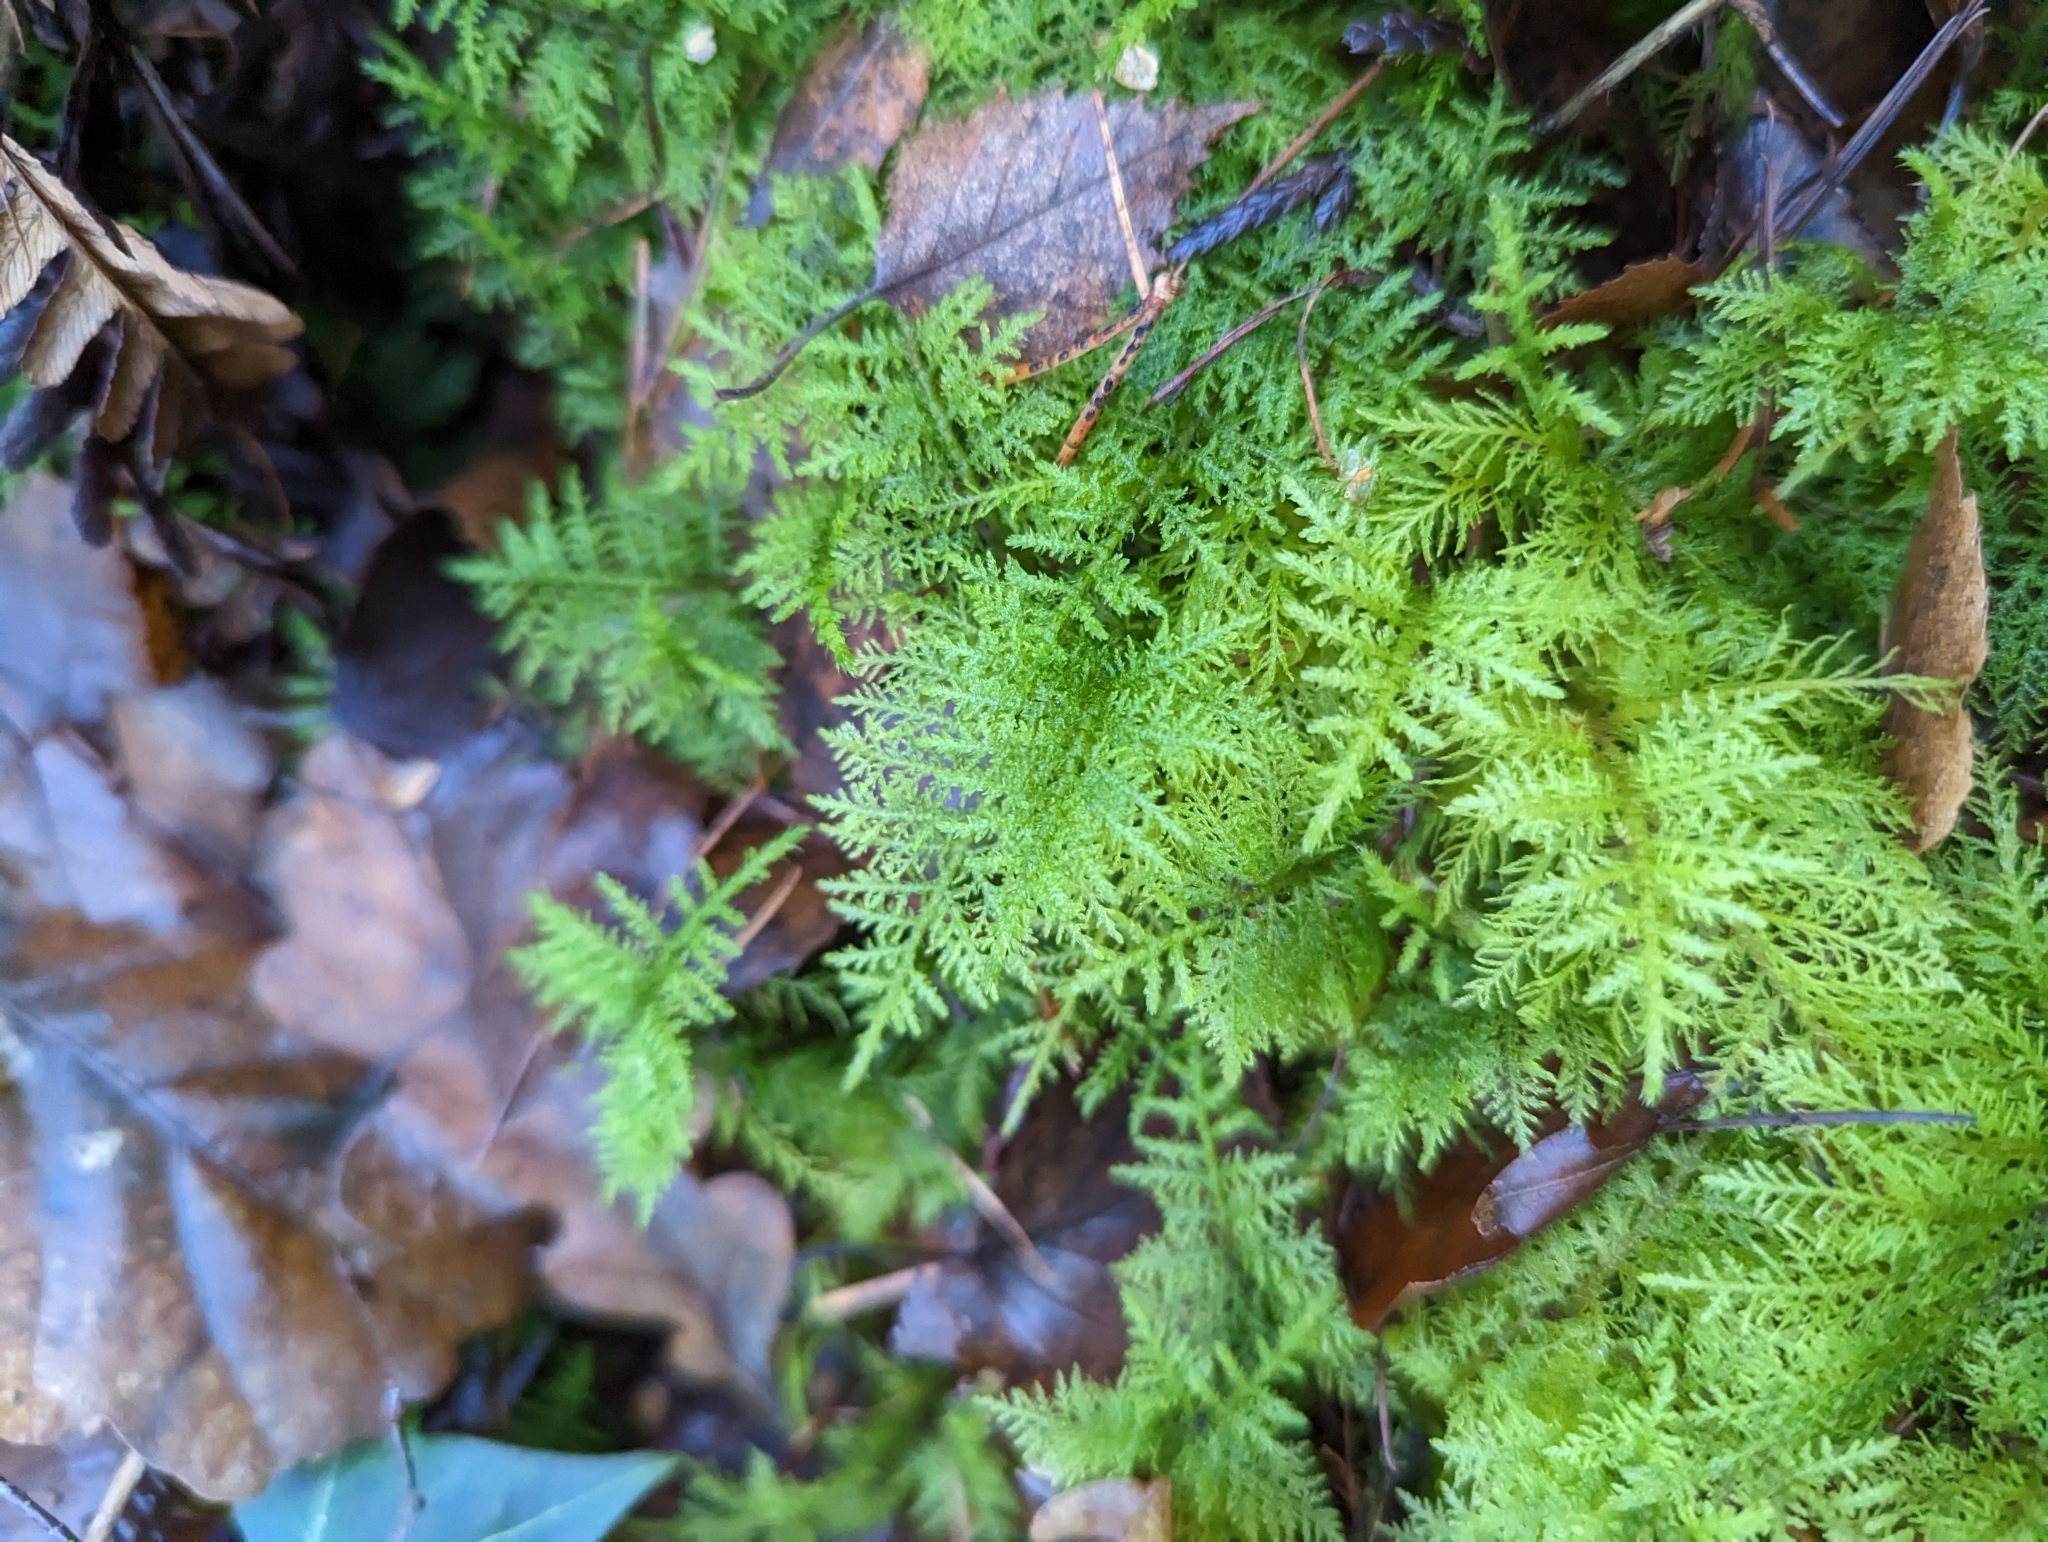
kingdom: Plantae
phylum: Bryophyta
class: Bryopsida
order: Hypnales
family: Thuidiaceae
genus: Thuidium
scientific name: Thuidium tamariscinum
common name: Common tamarisk-moss
